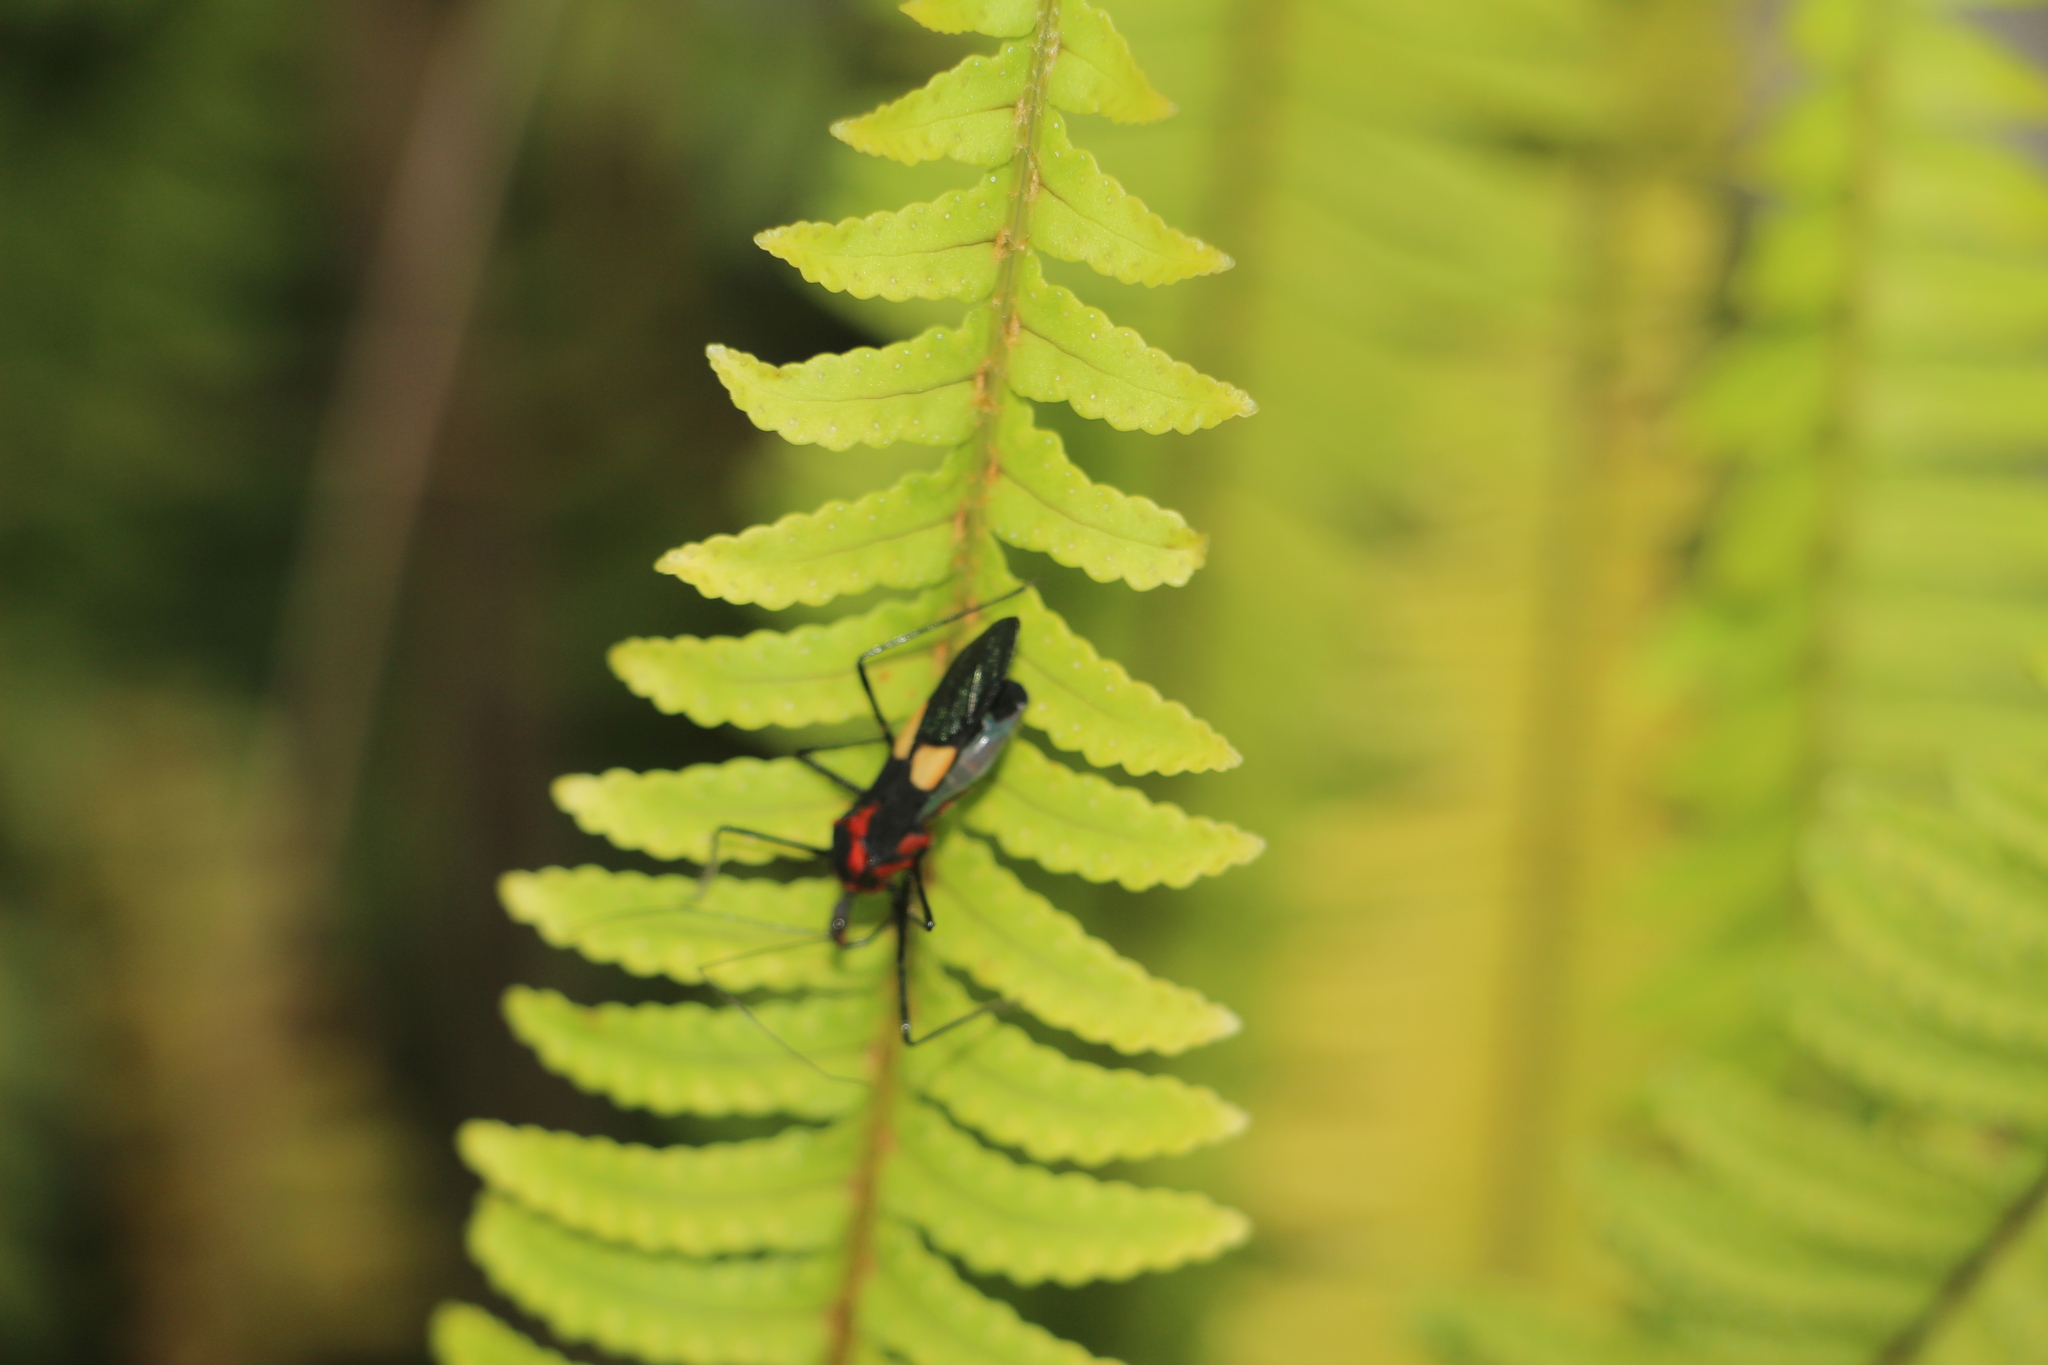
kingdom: Animalia
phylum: Arthropoda
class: Insecta
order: Hemiptera
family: Reduviidae
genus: Zelus
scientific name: Zelus means
